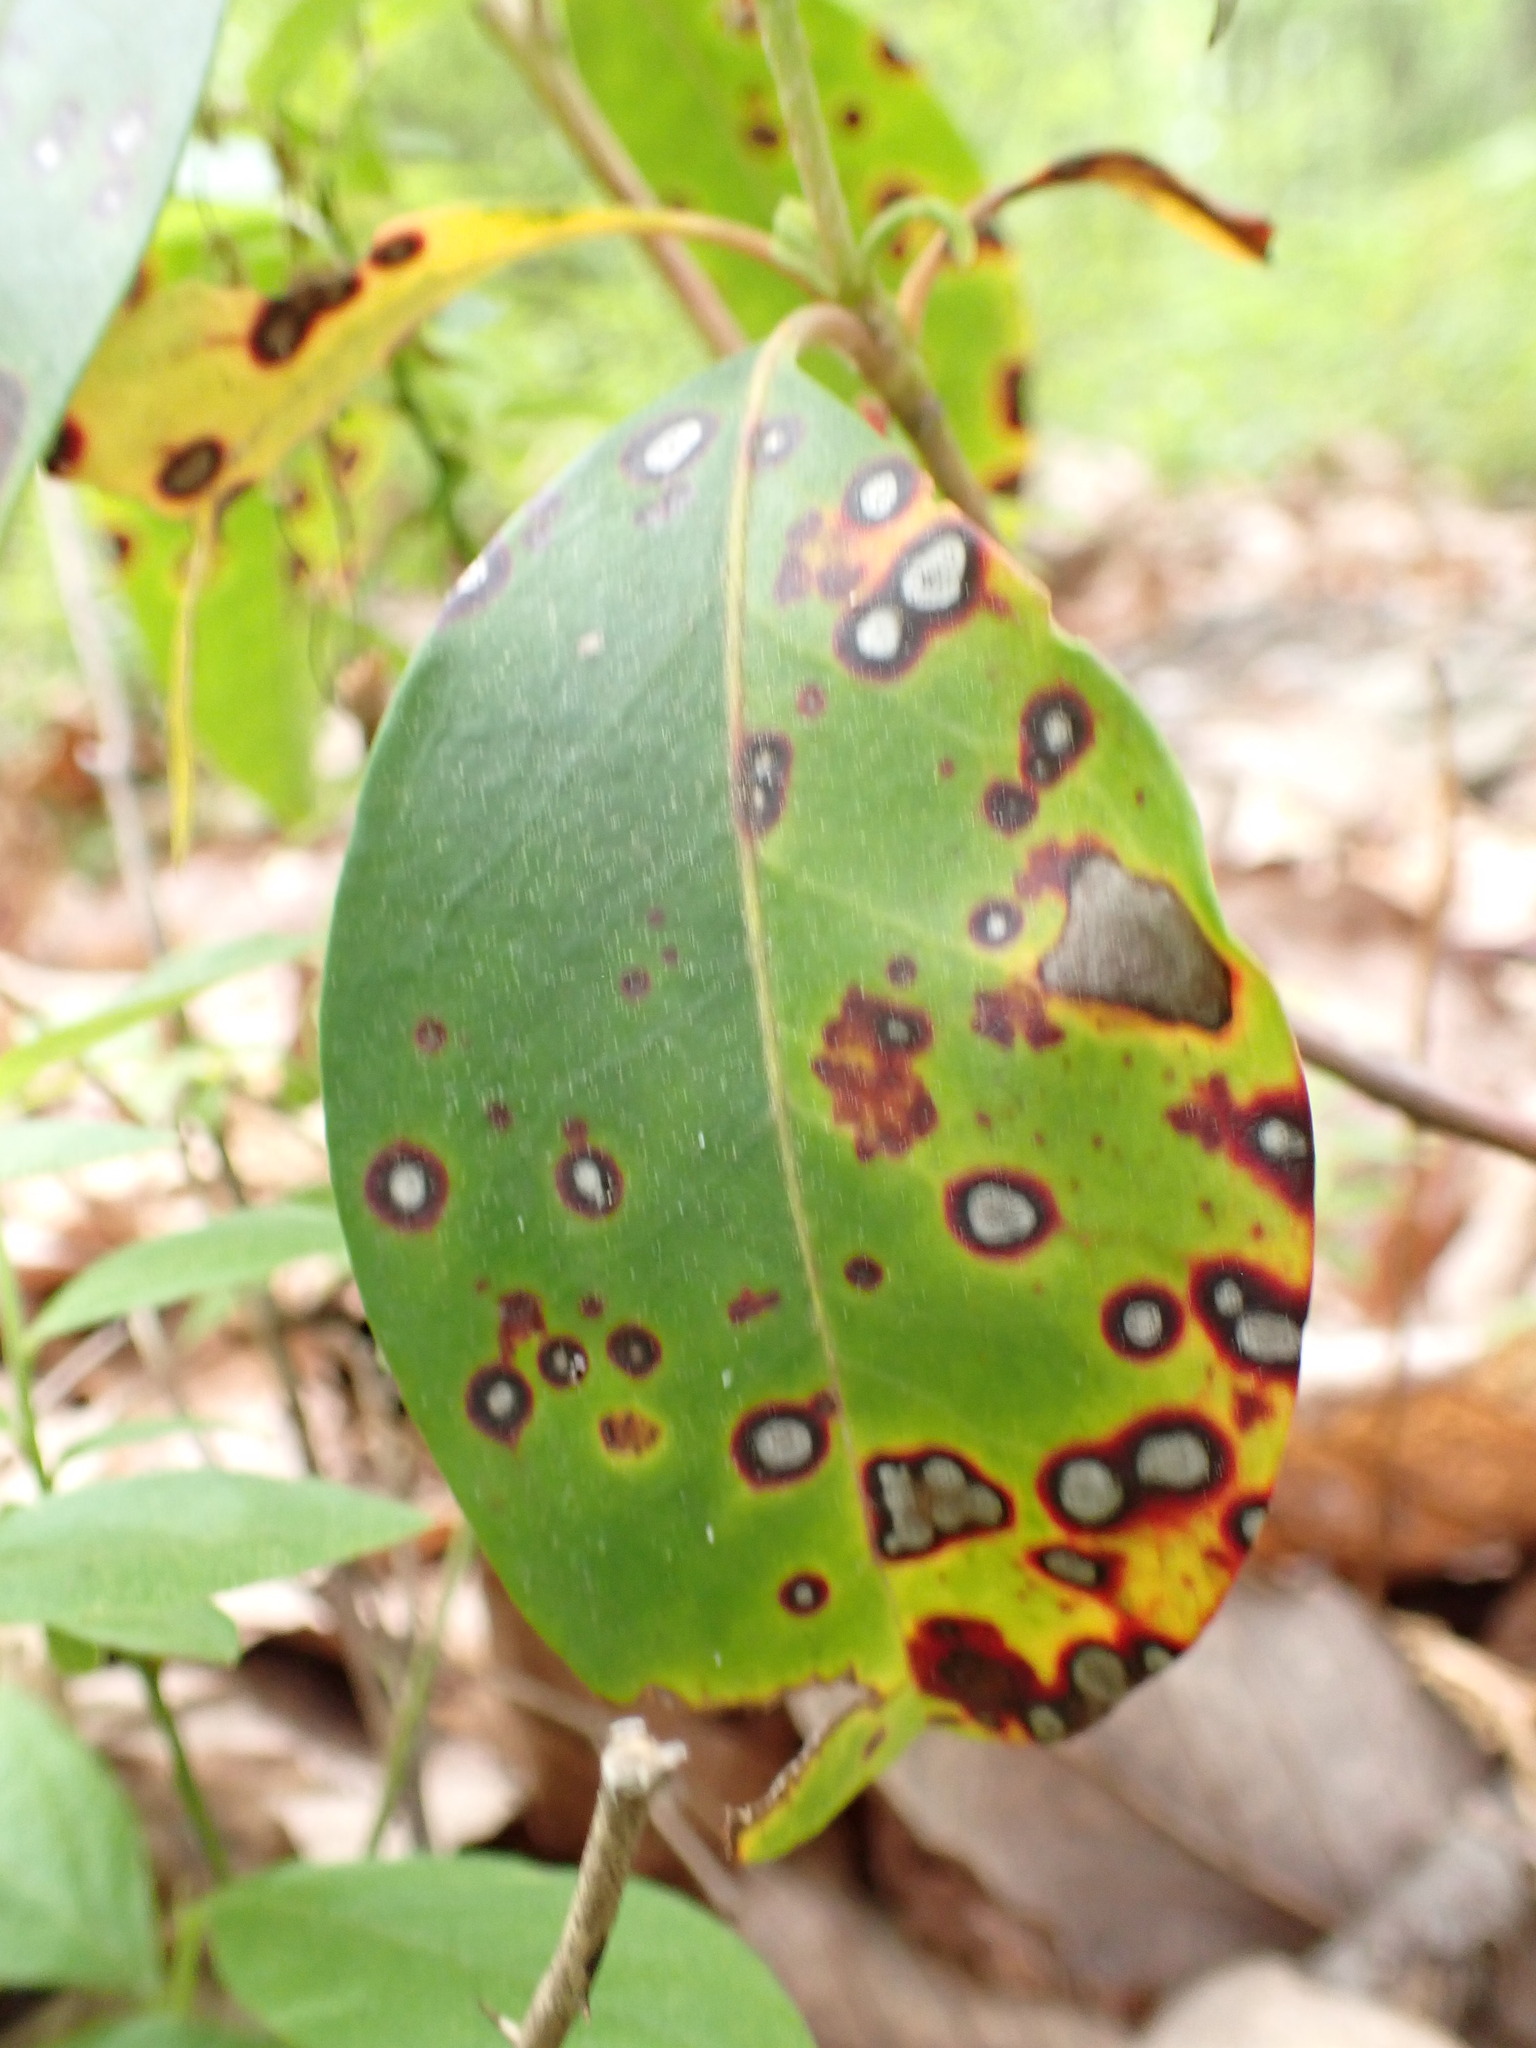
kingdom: Fungi
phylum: Ascomycota
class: Dothideomycetes
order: Mycosphaerellales
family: Mycosphaerellaceae
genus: Mycosphaerella
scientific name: Mycosphaerella colorata
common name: Mountain laurel leaf spot
